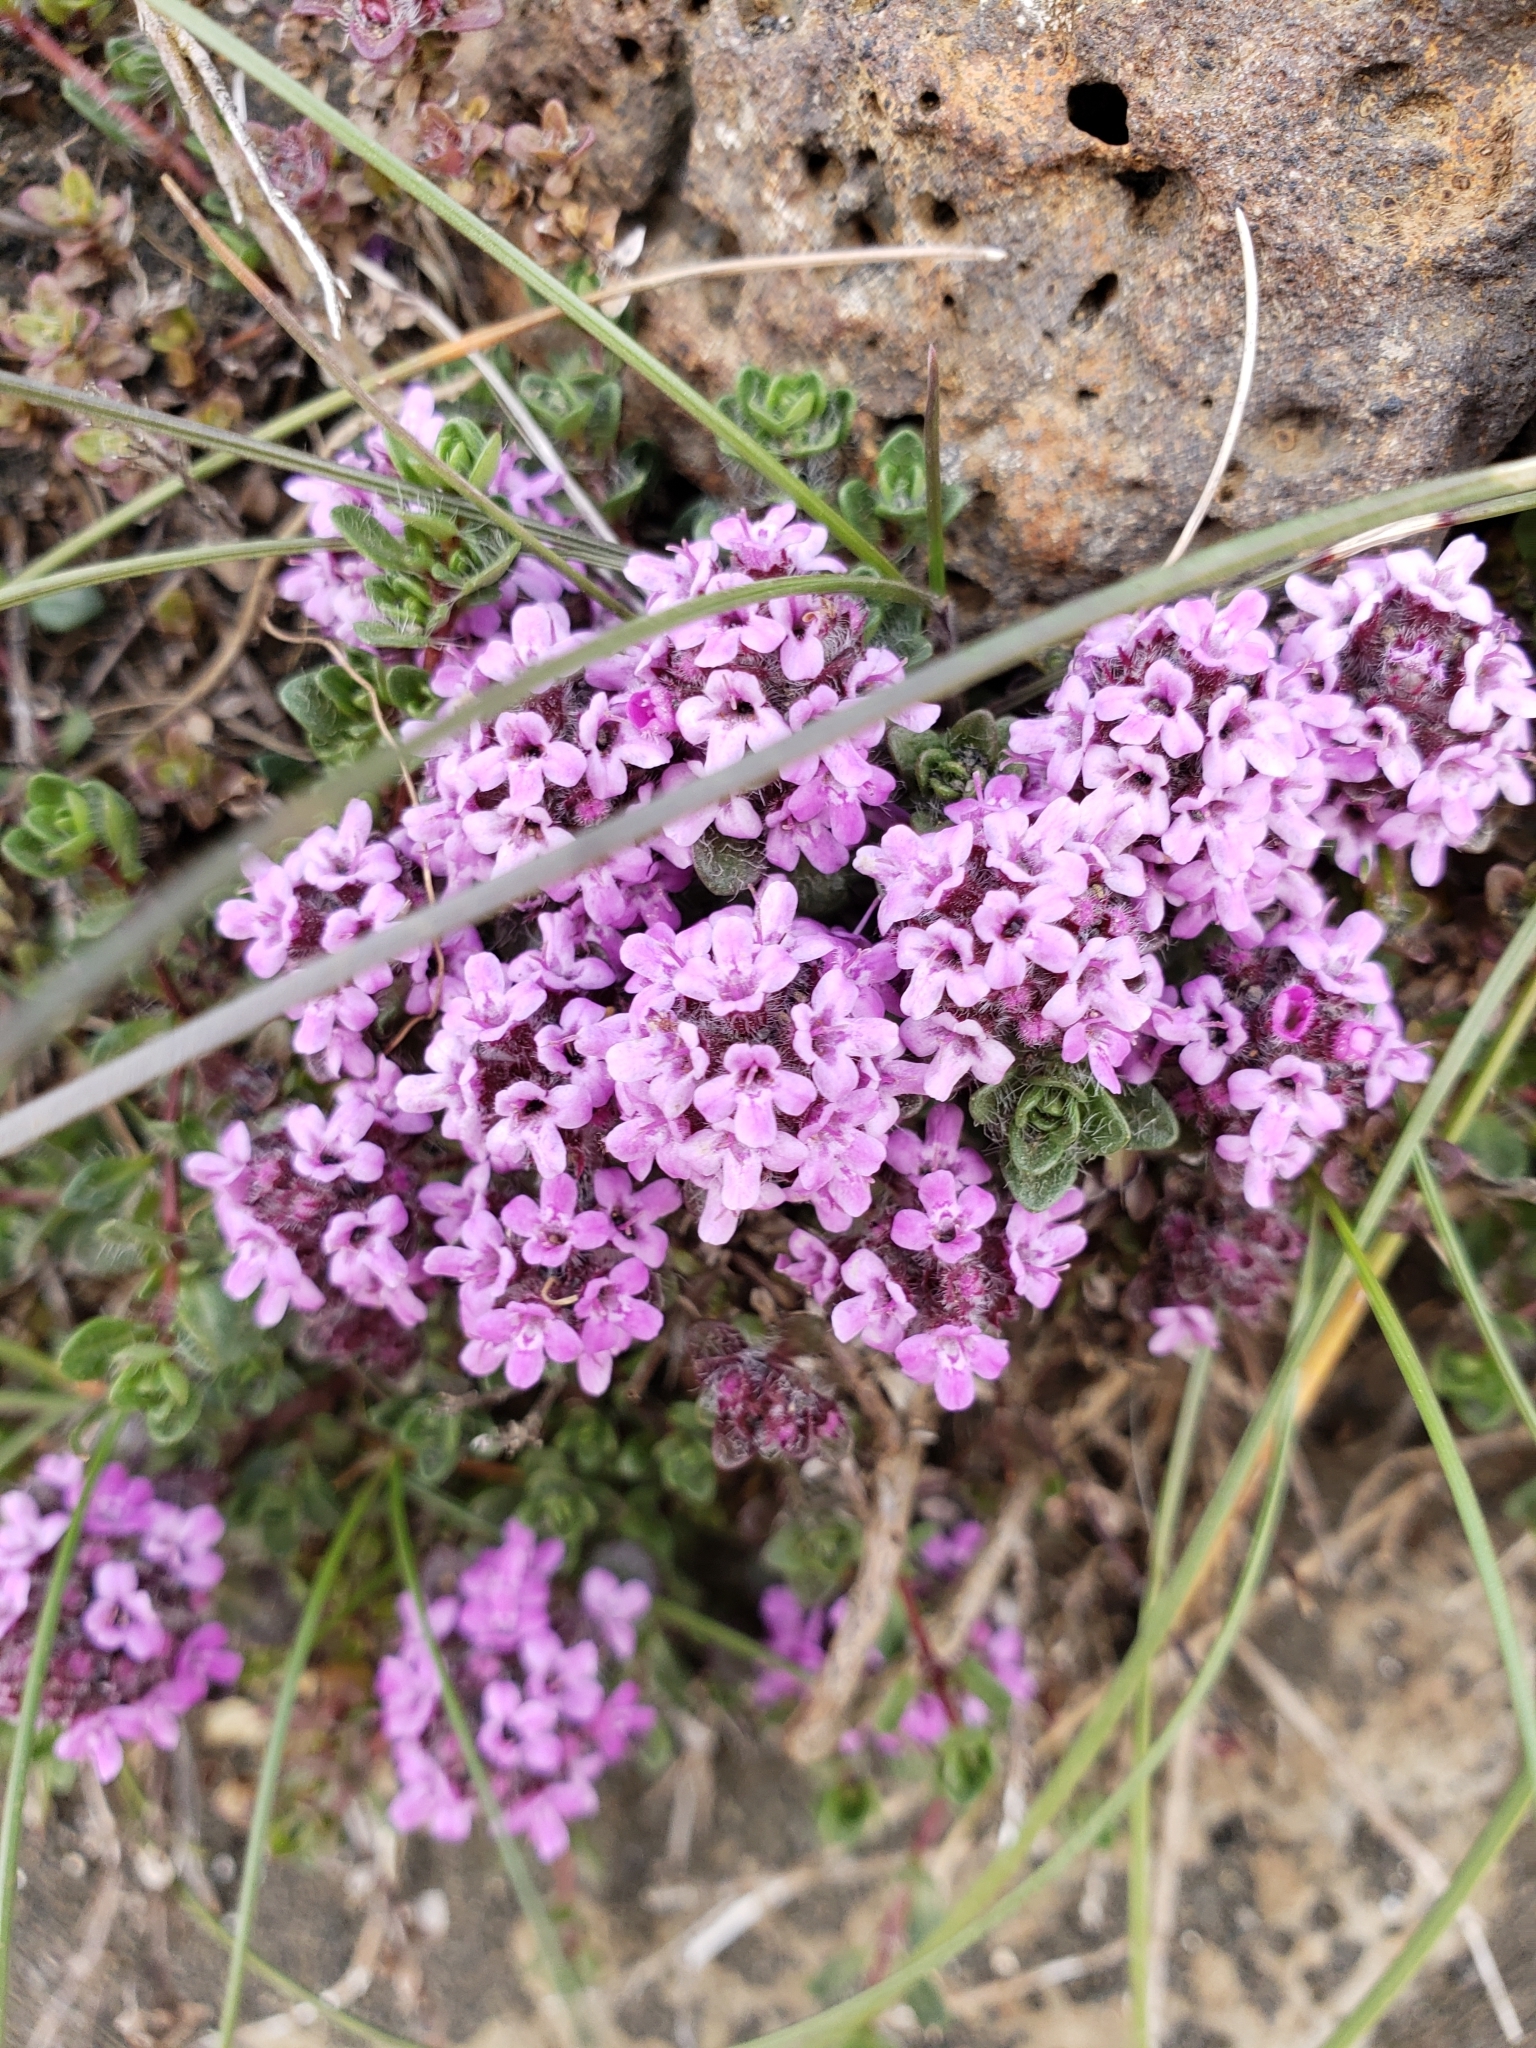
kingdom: Plantae
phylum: Tracheophyta
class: Magnoliopsida
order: Lamiales
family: Lamiaceae
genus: Thymus
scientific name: Thymus praecox
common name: Wild thyme
